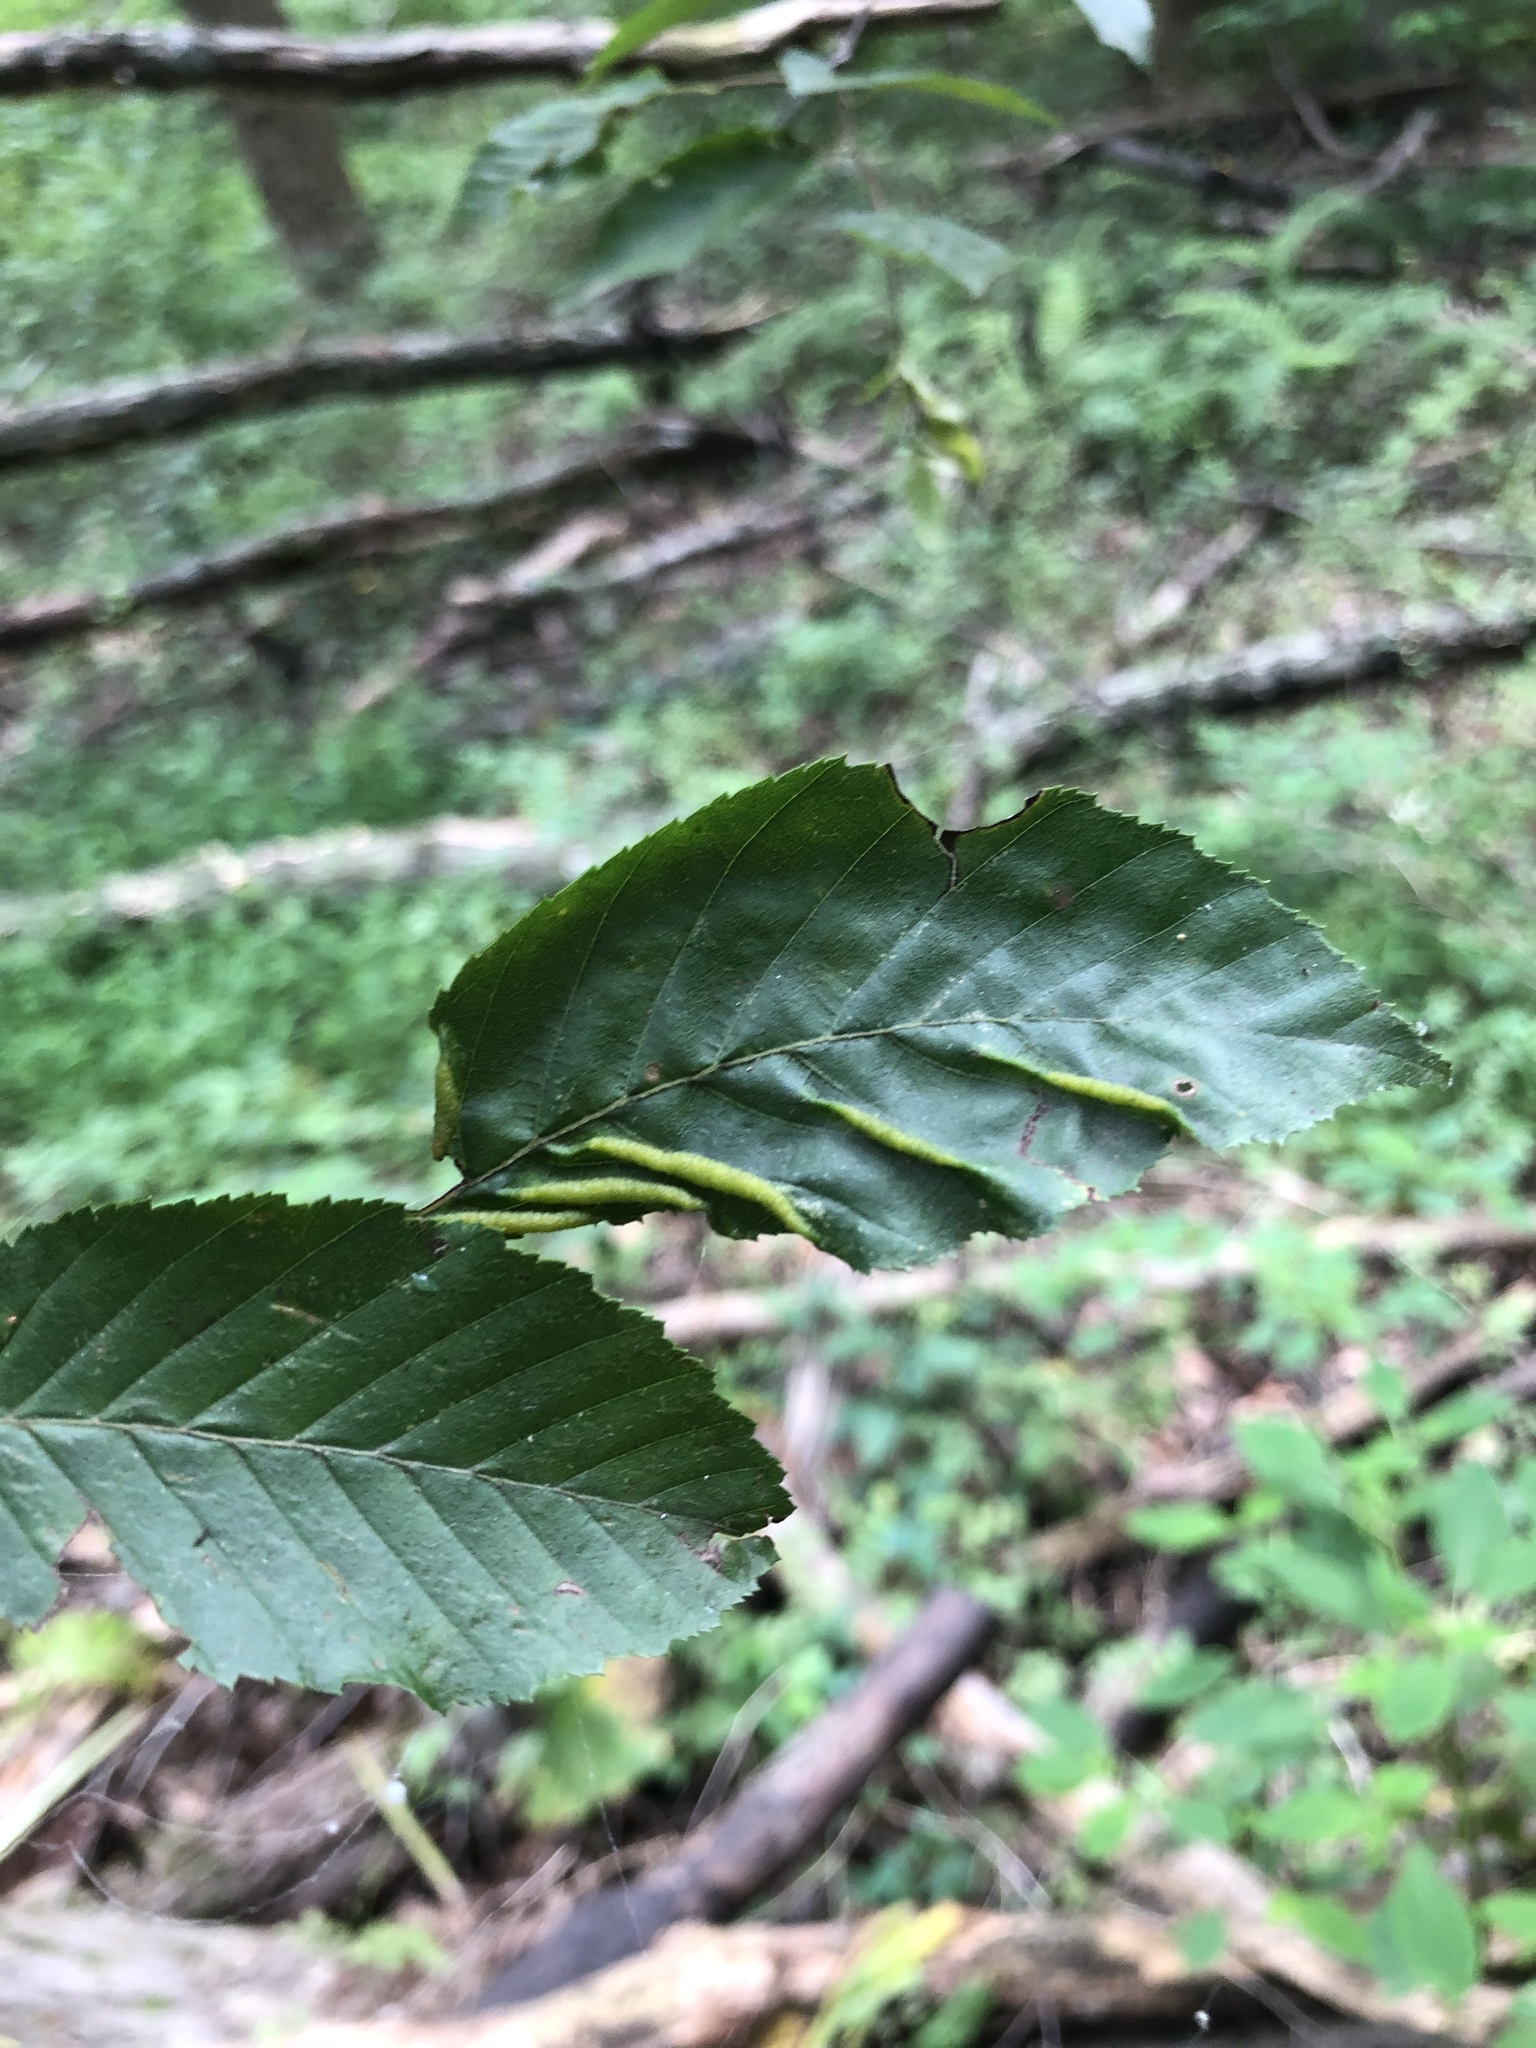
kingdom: Animalia
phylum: Arthropoda
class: Insecta
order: Diptera
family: Cecidomyiidae
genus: Dasineura
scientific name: Dasineura pudibunda
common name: Hornbeam leaf gall midge
